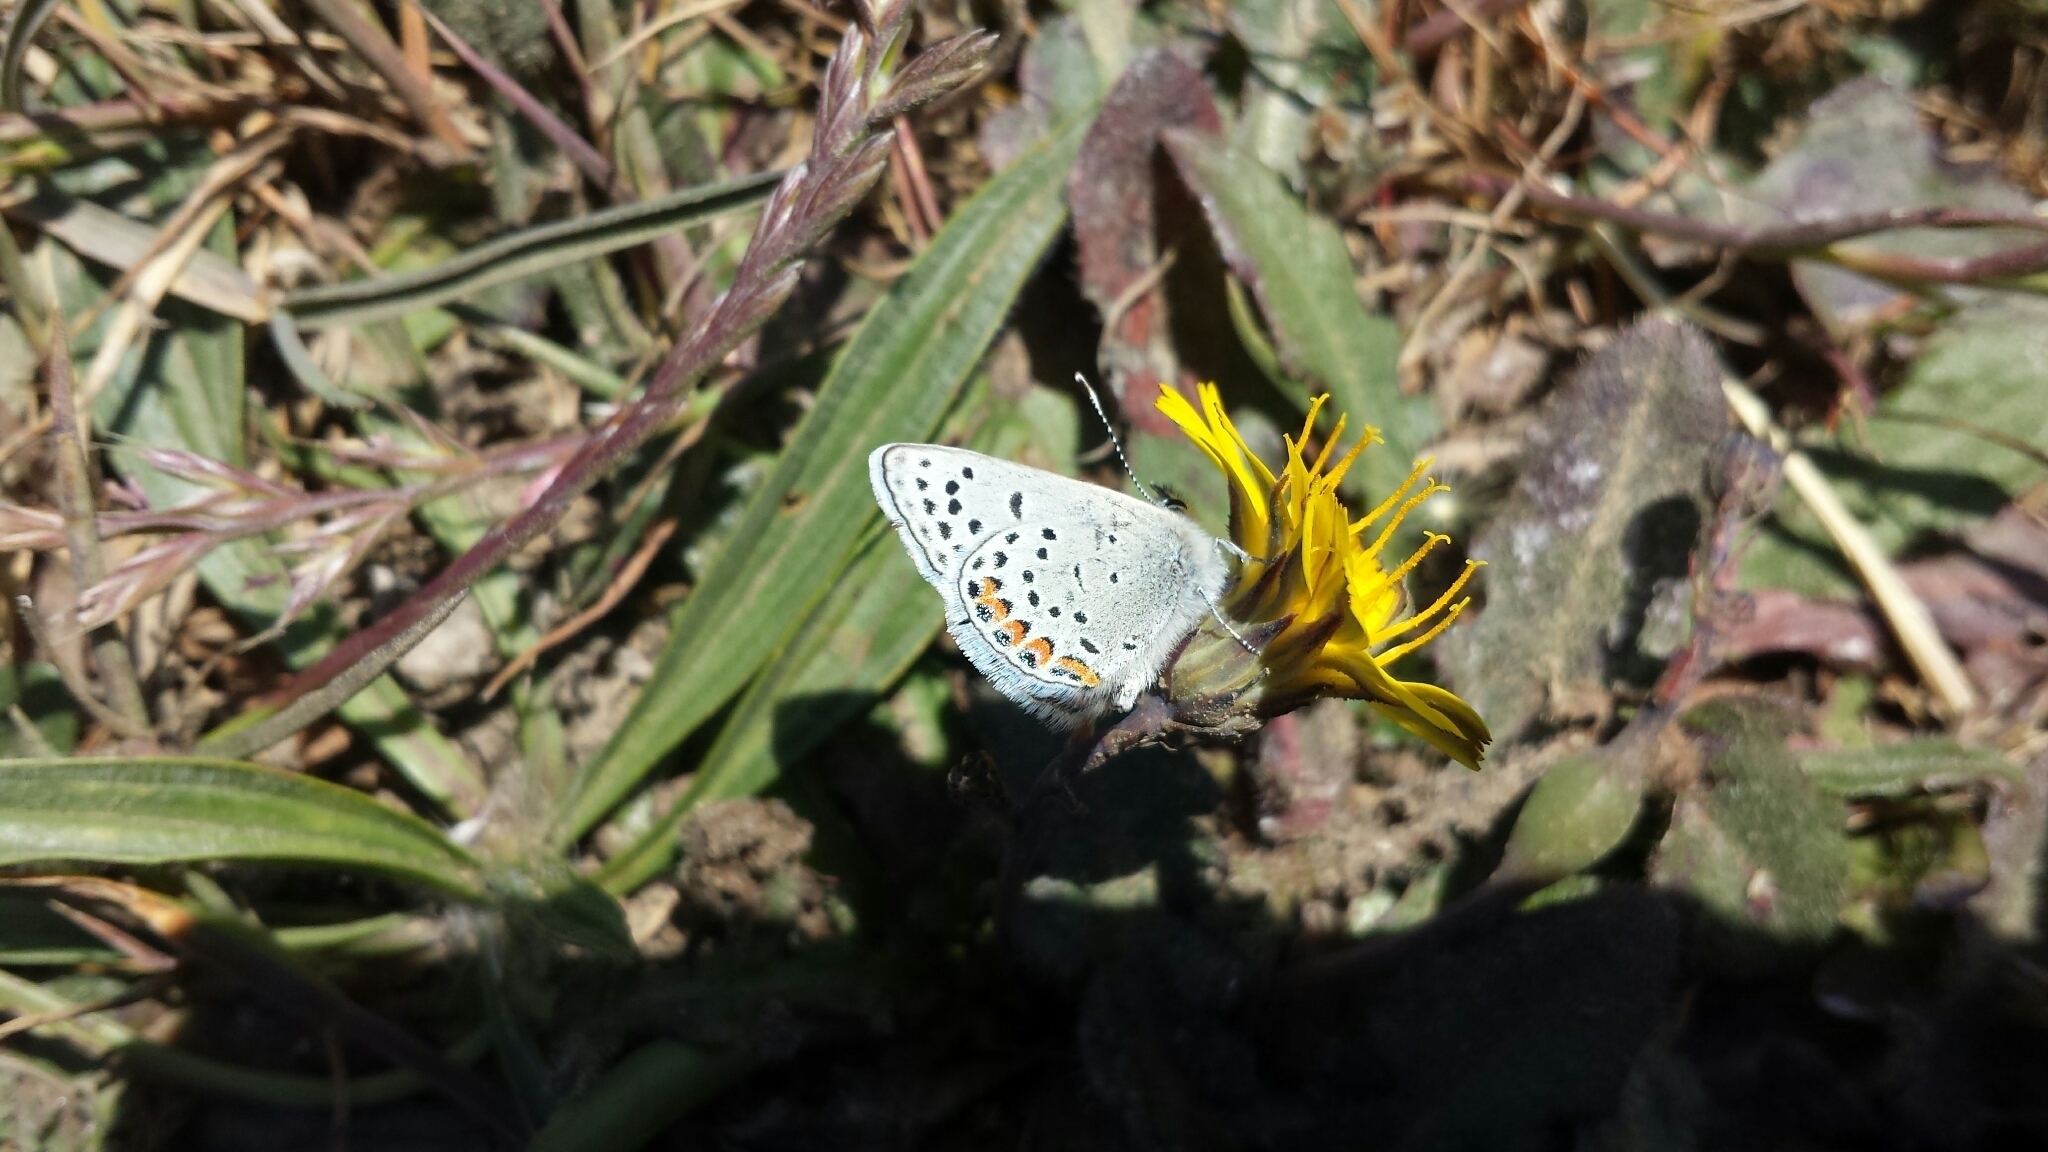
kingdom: Animalia
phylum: Arthropoda
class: Insecta
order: Lepidoptera
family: Lycaenidae
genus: Icaricia
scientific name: Icaricia acmon
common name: Acmon blue
